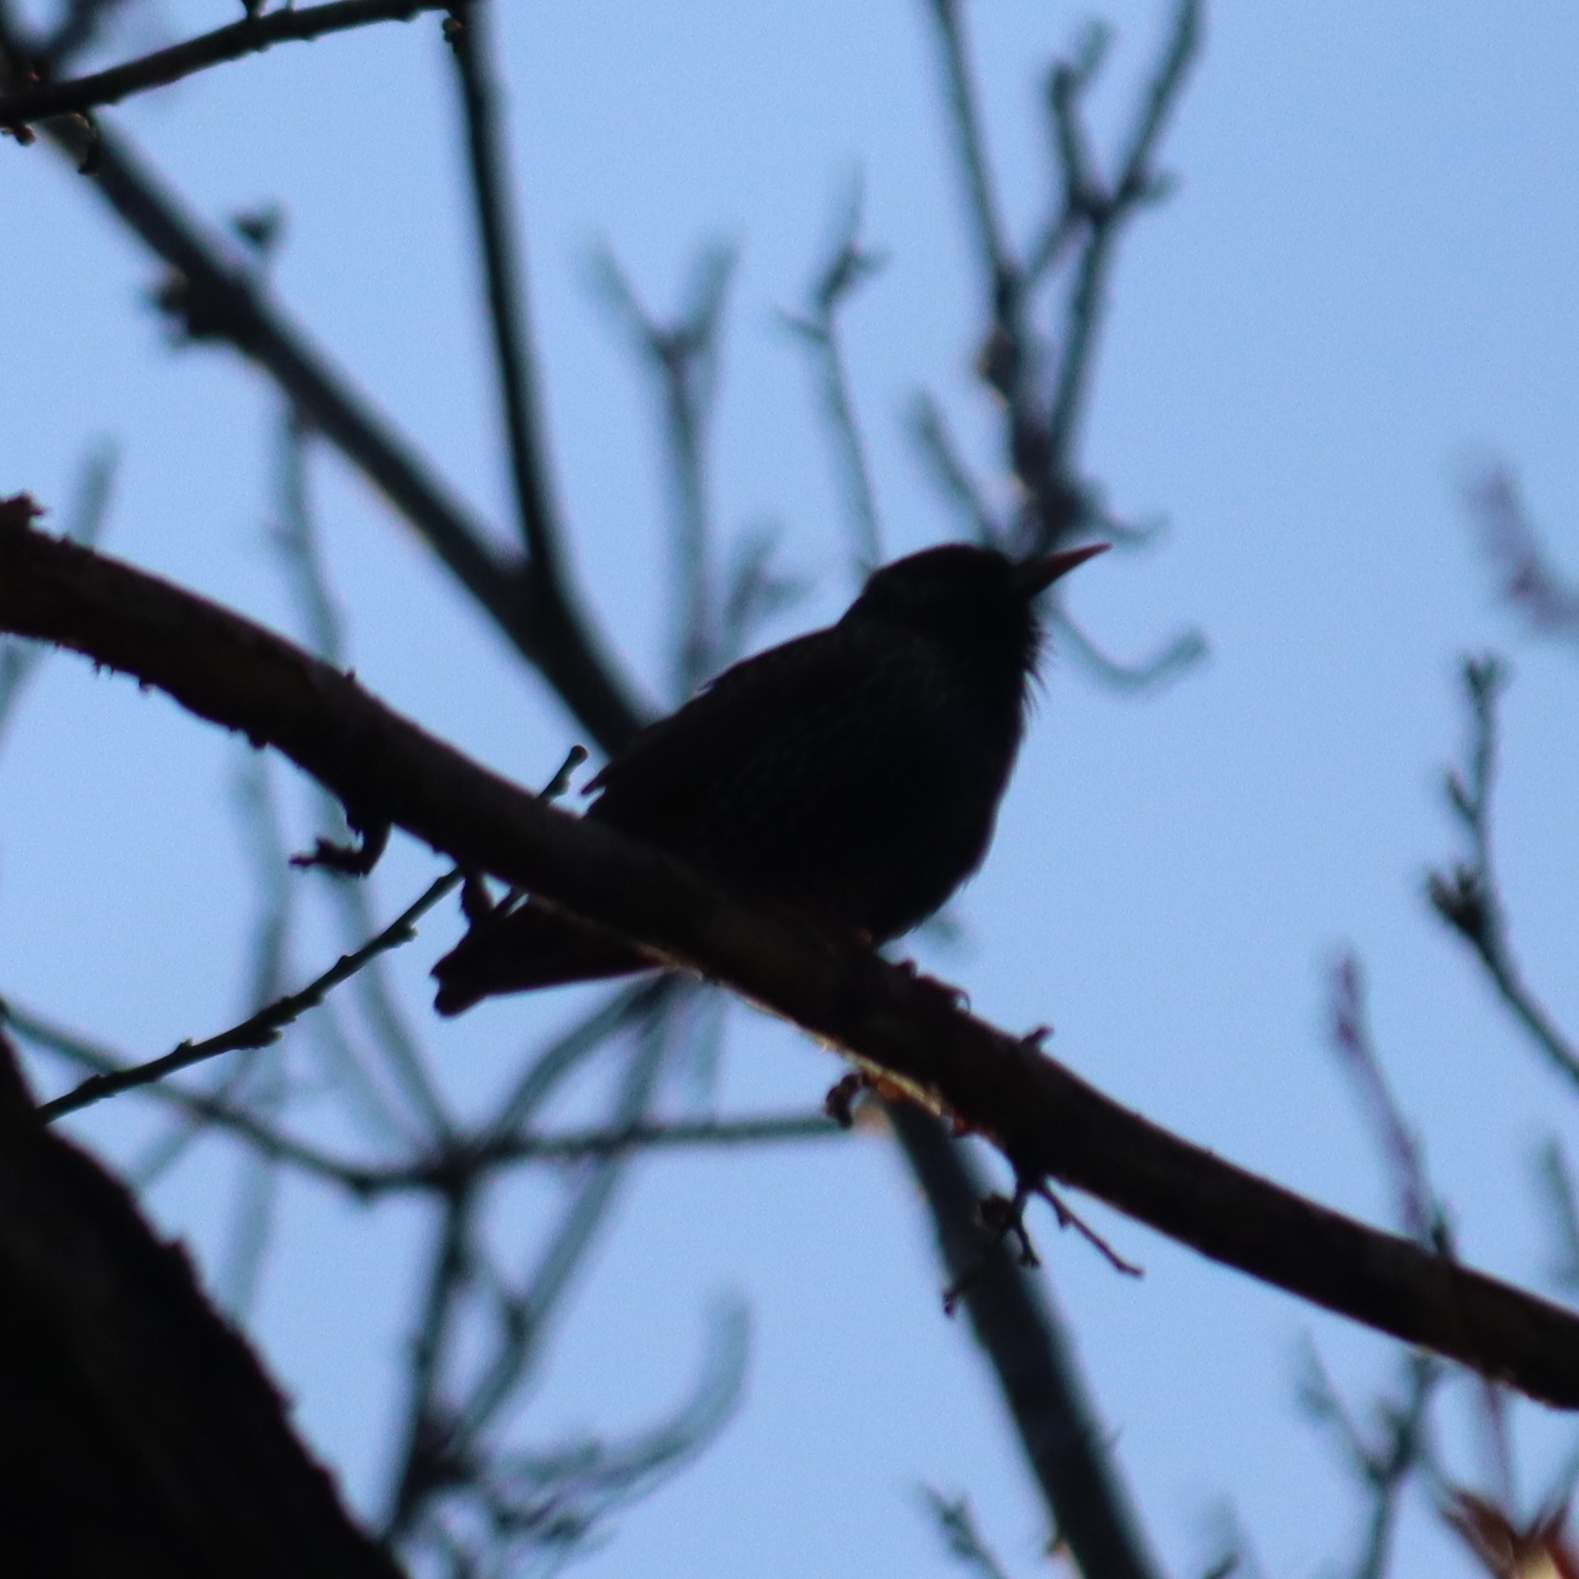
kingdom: Animalia
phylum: Chordata
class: Aves
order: Passeriformes
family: Sturnidae
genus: Sturnus
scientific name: Sturnus vulgaris
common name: Common starling
